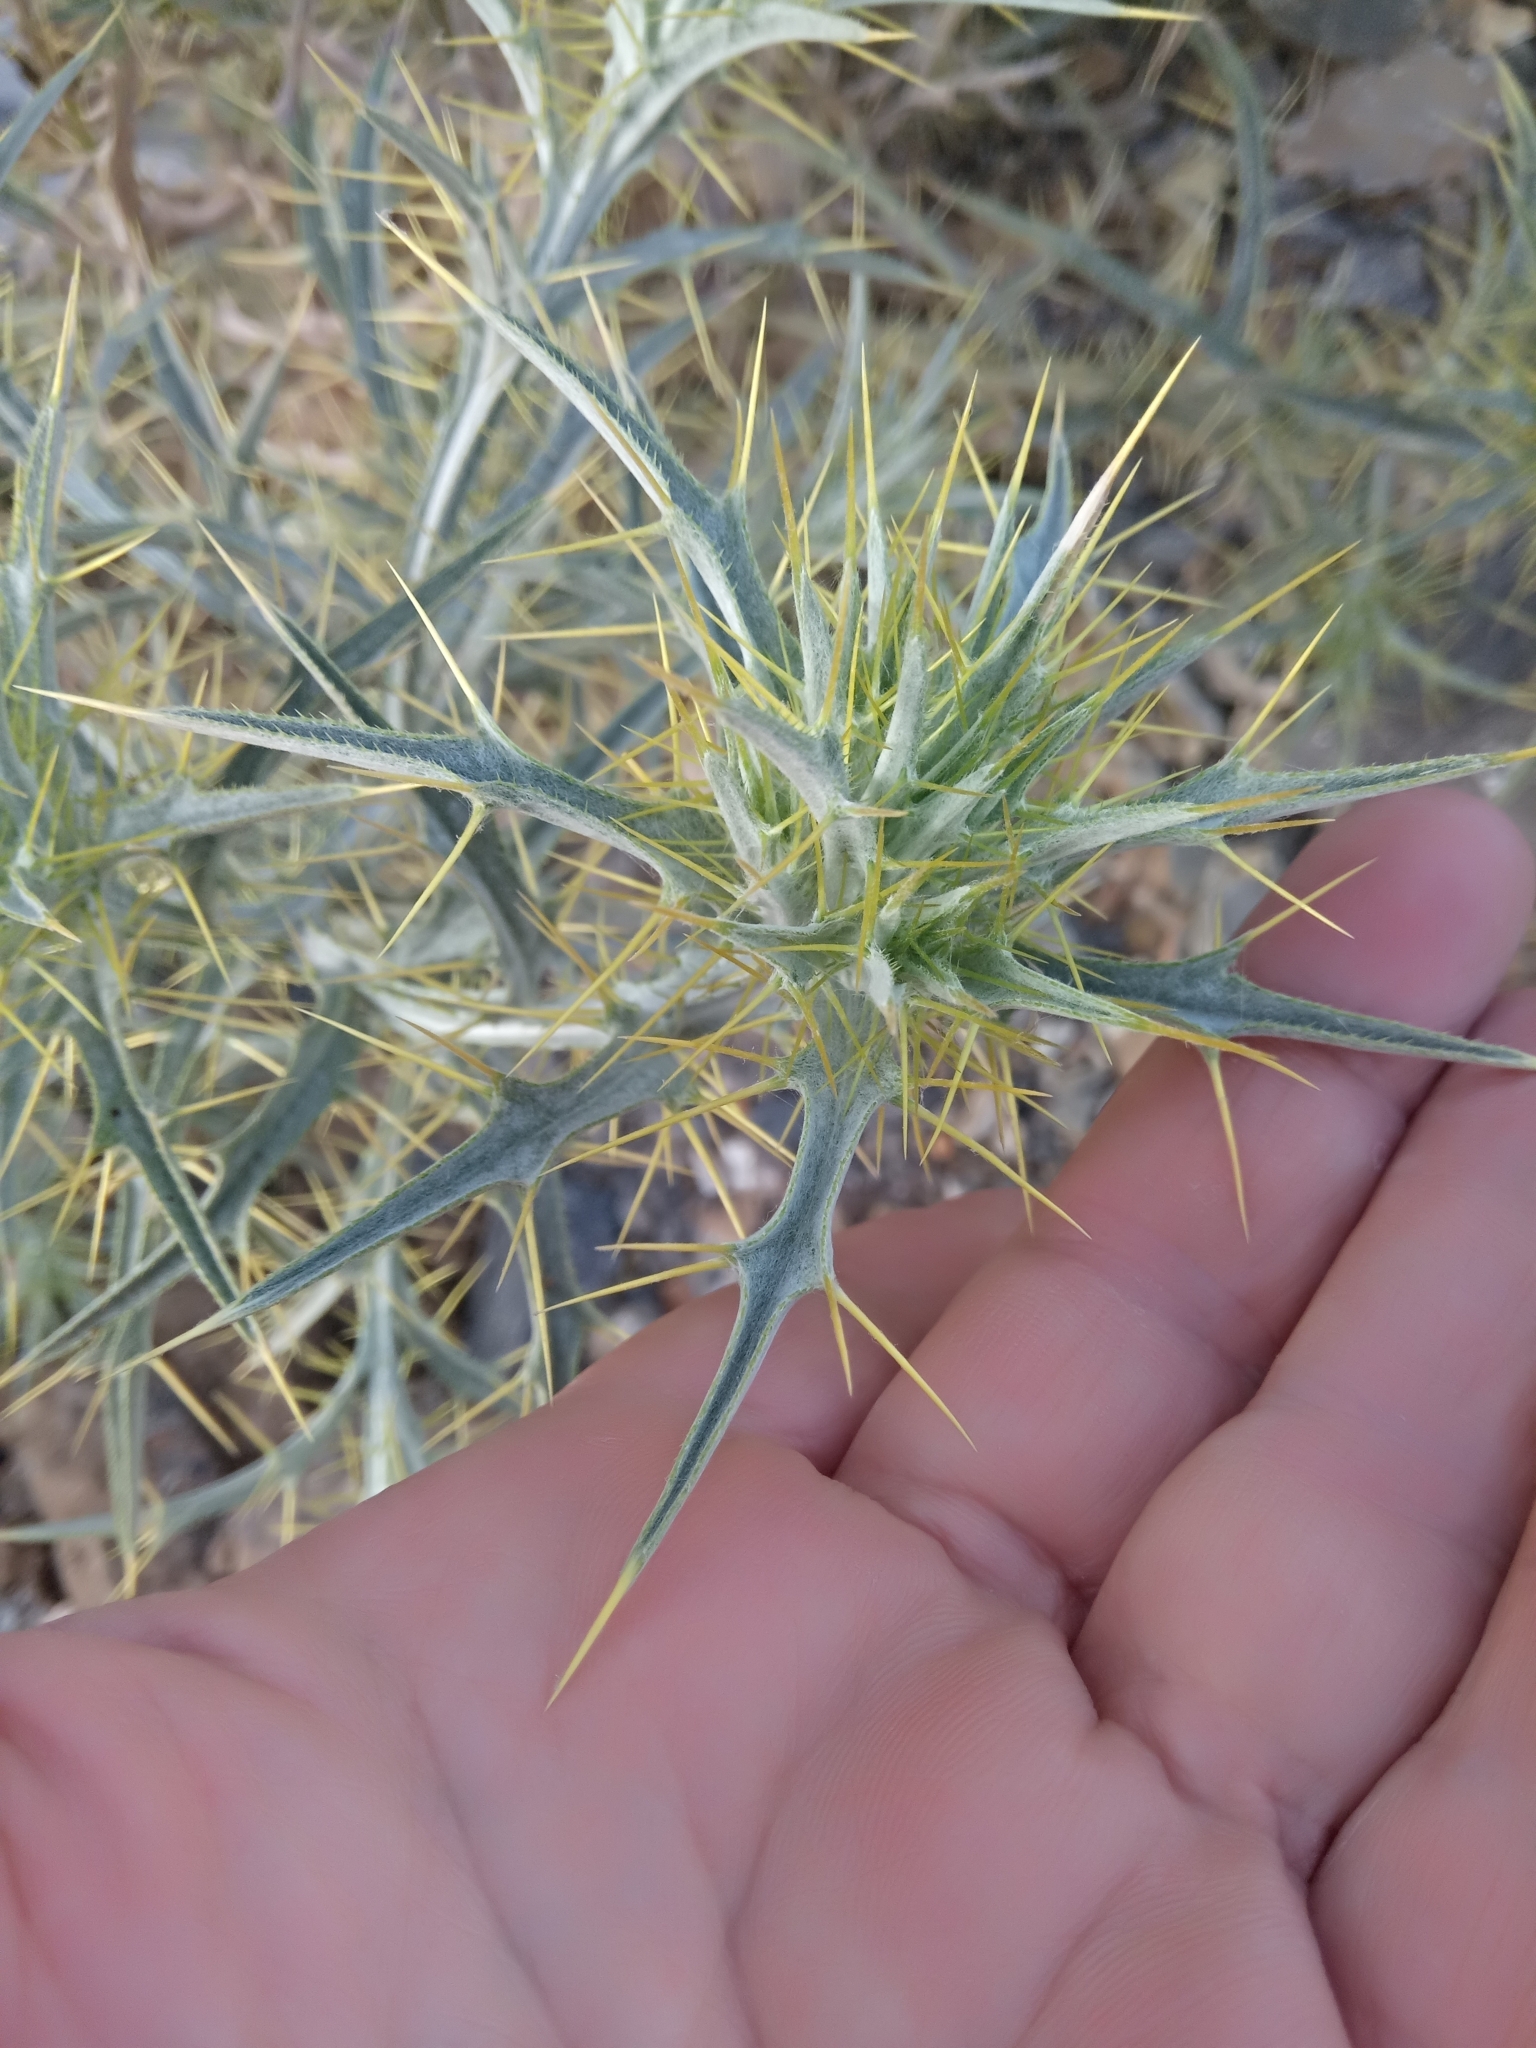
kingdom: Plantae
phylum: Tracheophyta
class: Magnoliopsida
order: Asterales
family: Asteraceae
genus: Picnomon
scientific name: Picnomon acarna
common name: Soldier thistle
